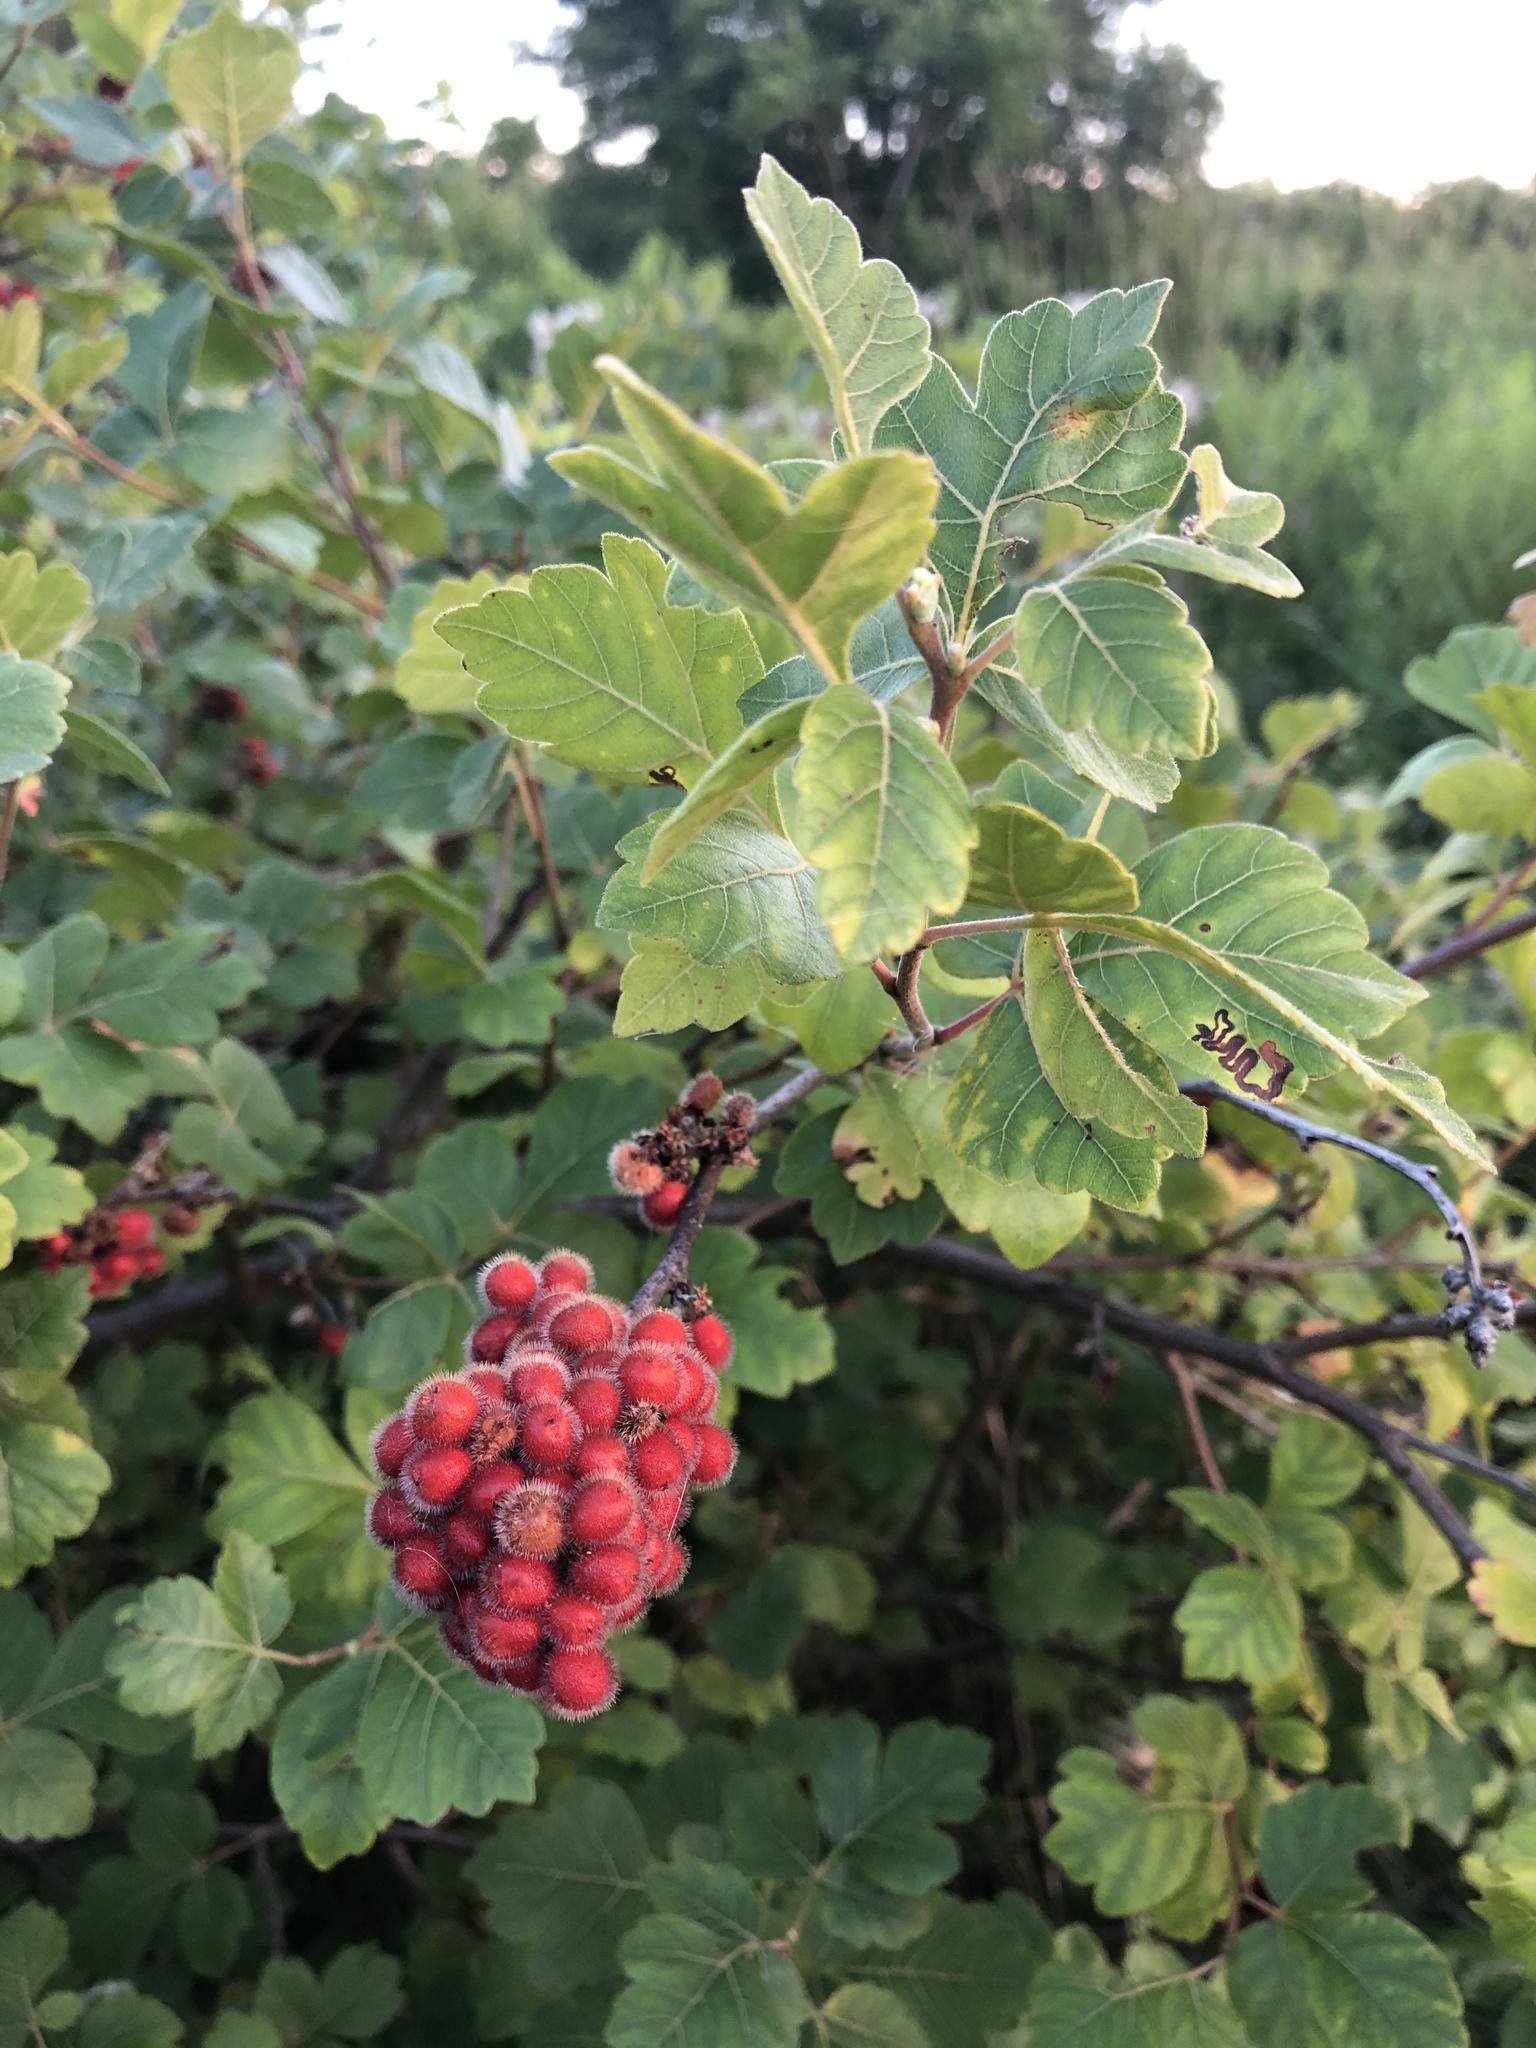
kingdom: Plantae
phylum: Tracheophyta
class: Magnoliopsida
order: Sapindales
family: Anacardiaceae
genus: Rhus
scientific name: Rhus aromatica
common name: Aromatic sumac
